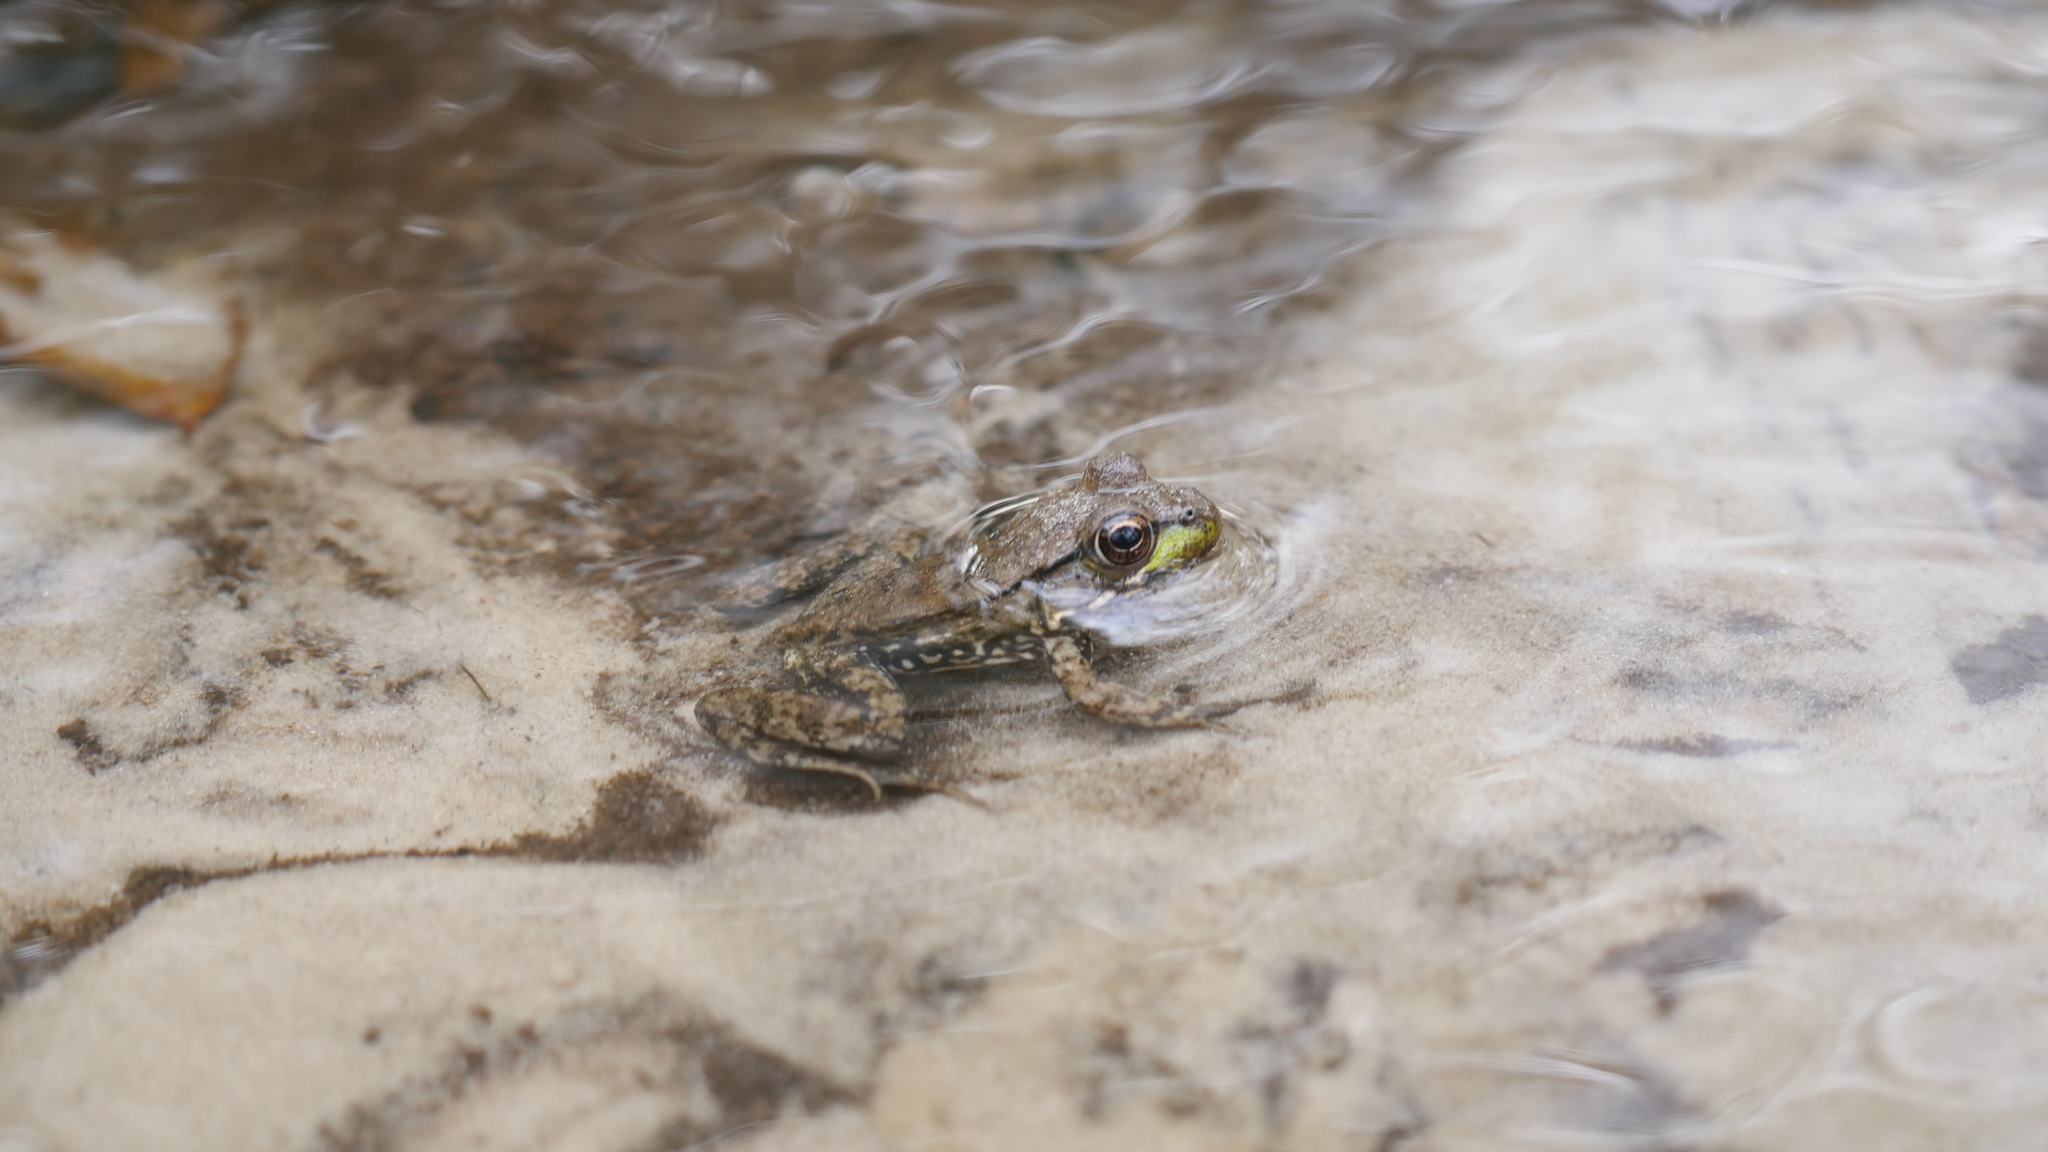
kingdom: Animalia
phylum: Chordata
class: Amphibia
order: Anura
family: Ranidae
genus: Lithobates
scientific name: Lithobates clamitans
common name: Green frog
